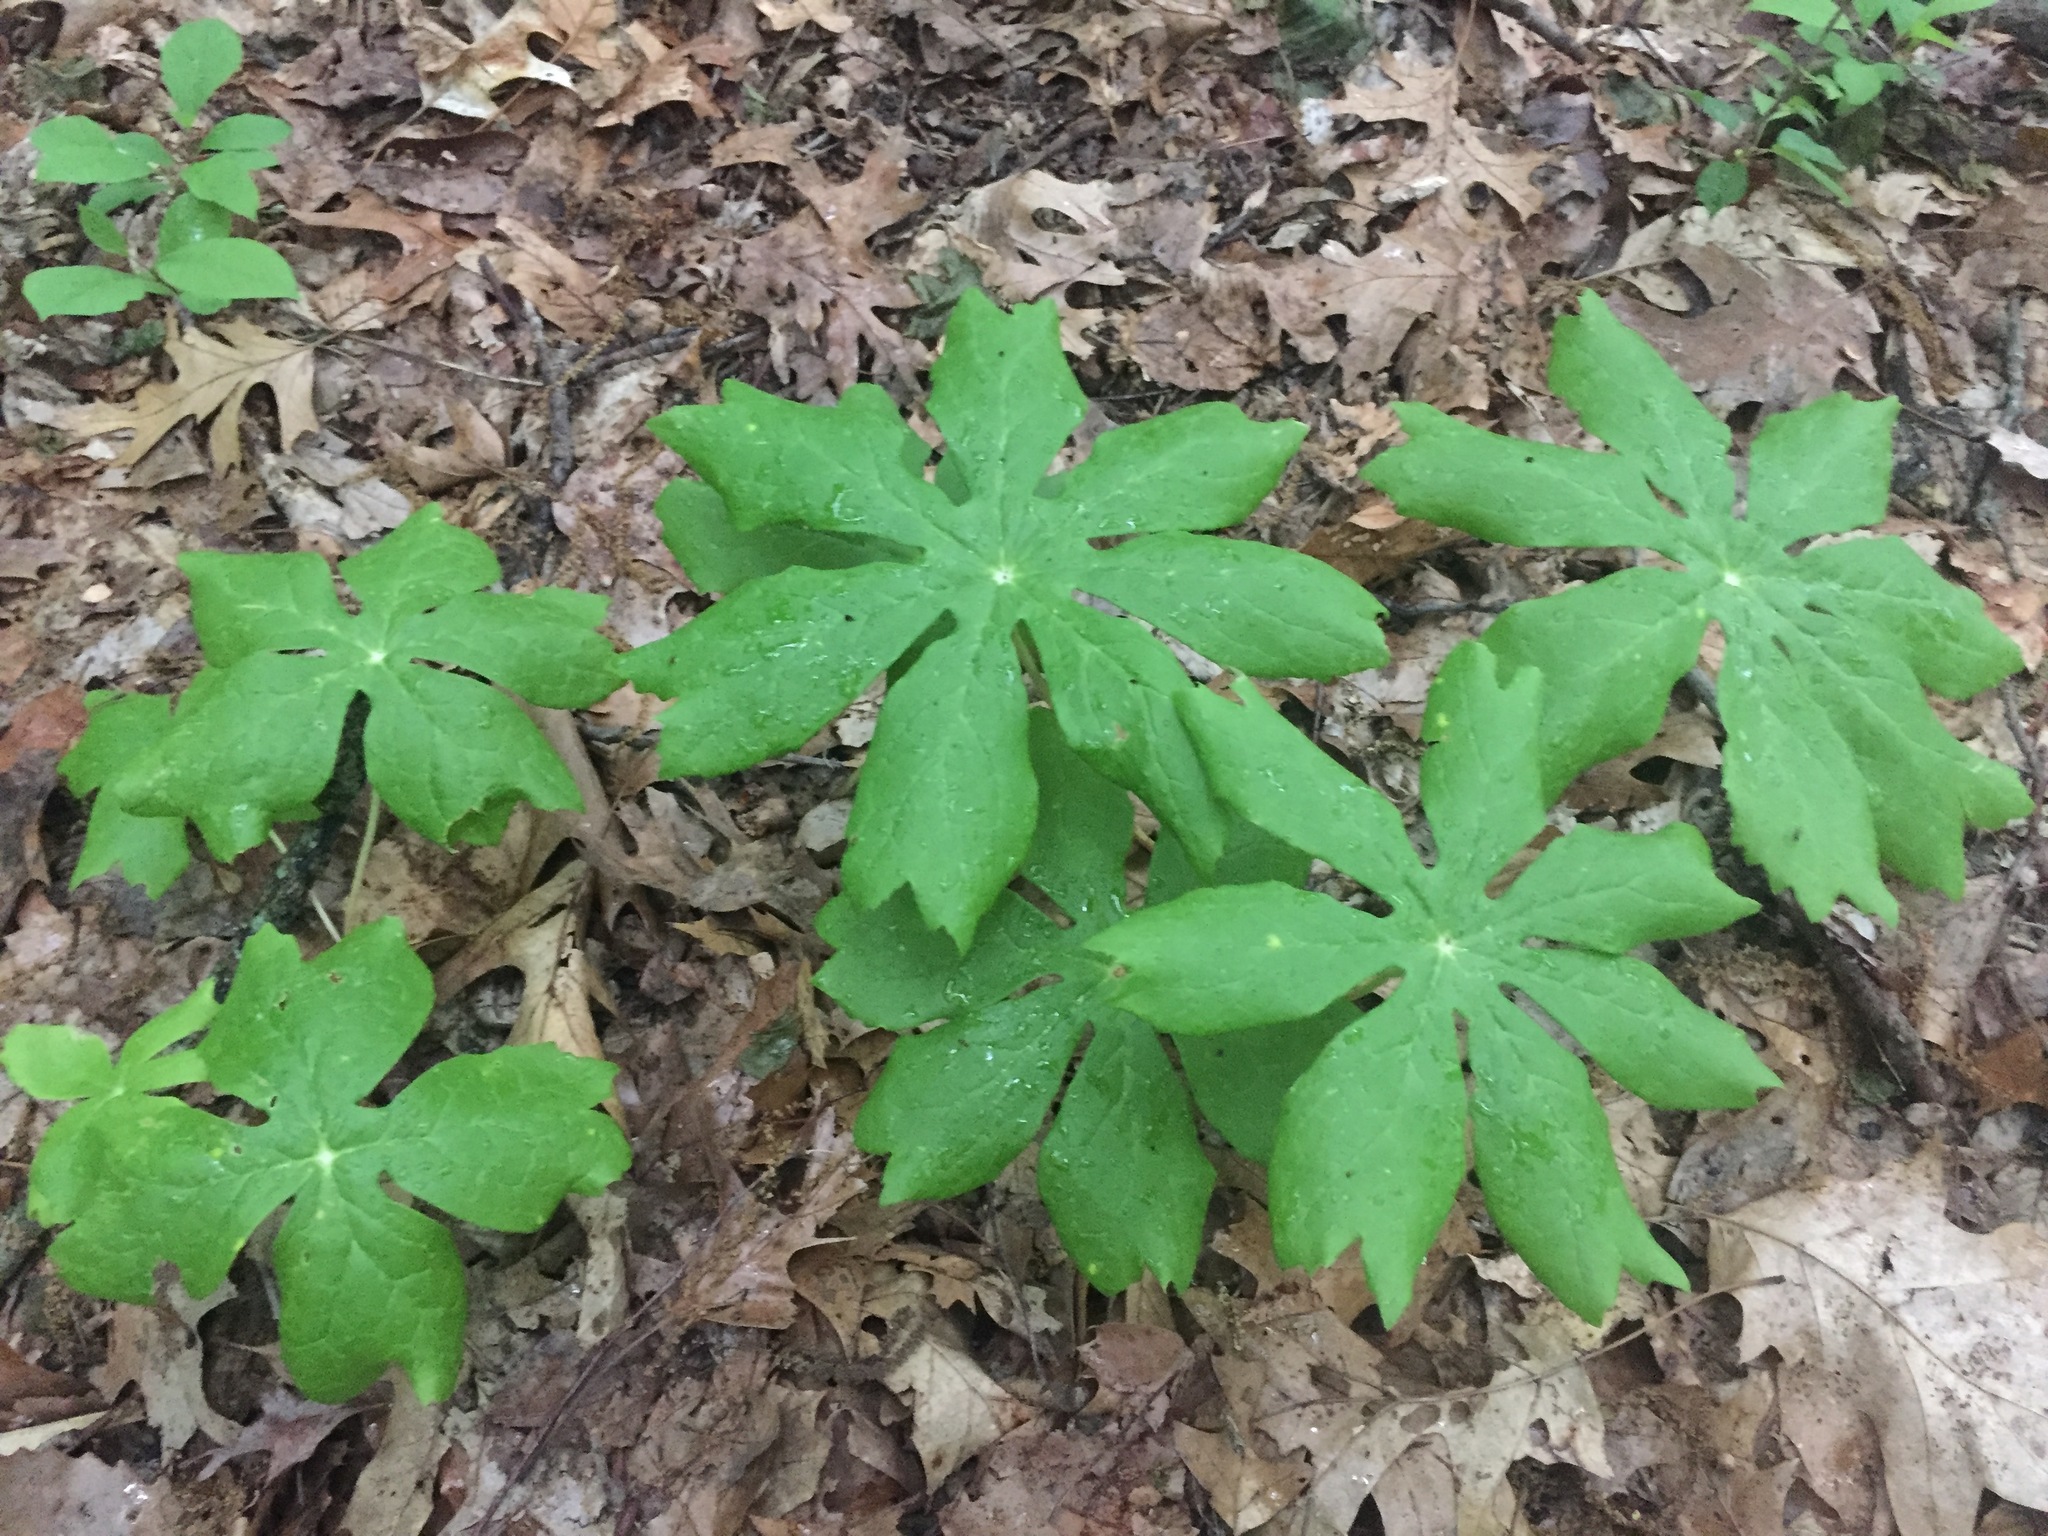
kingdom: Plantae
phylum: Tracheophyta
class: Magnoliopsida
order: Ranunculales
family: Berberidaceae
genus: Podophyllum
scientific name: Podophyllum peltatum
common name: Wild mandrake
